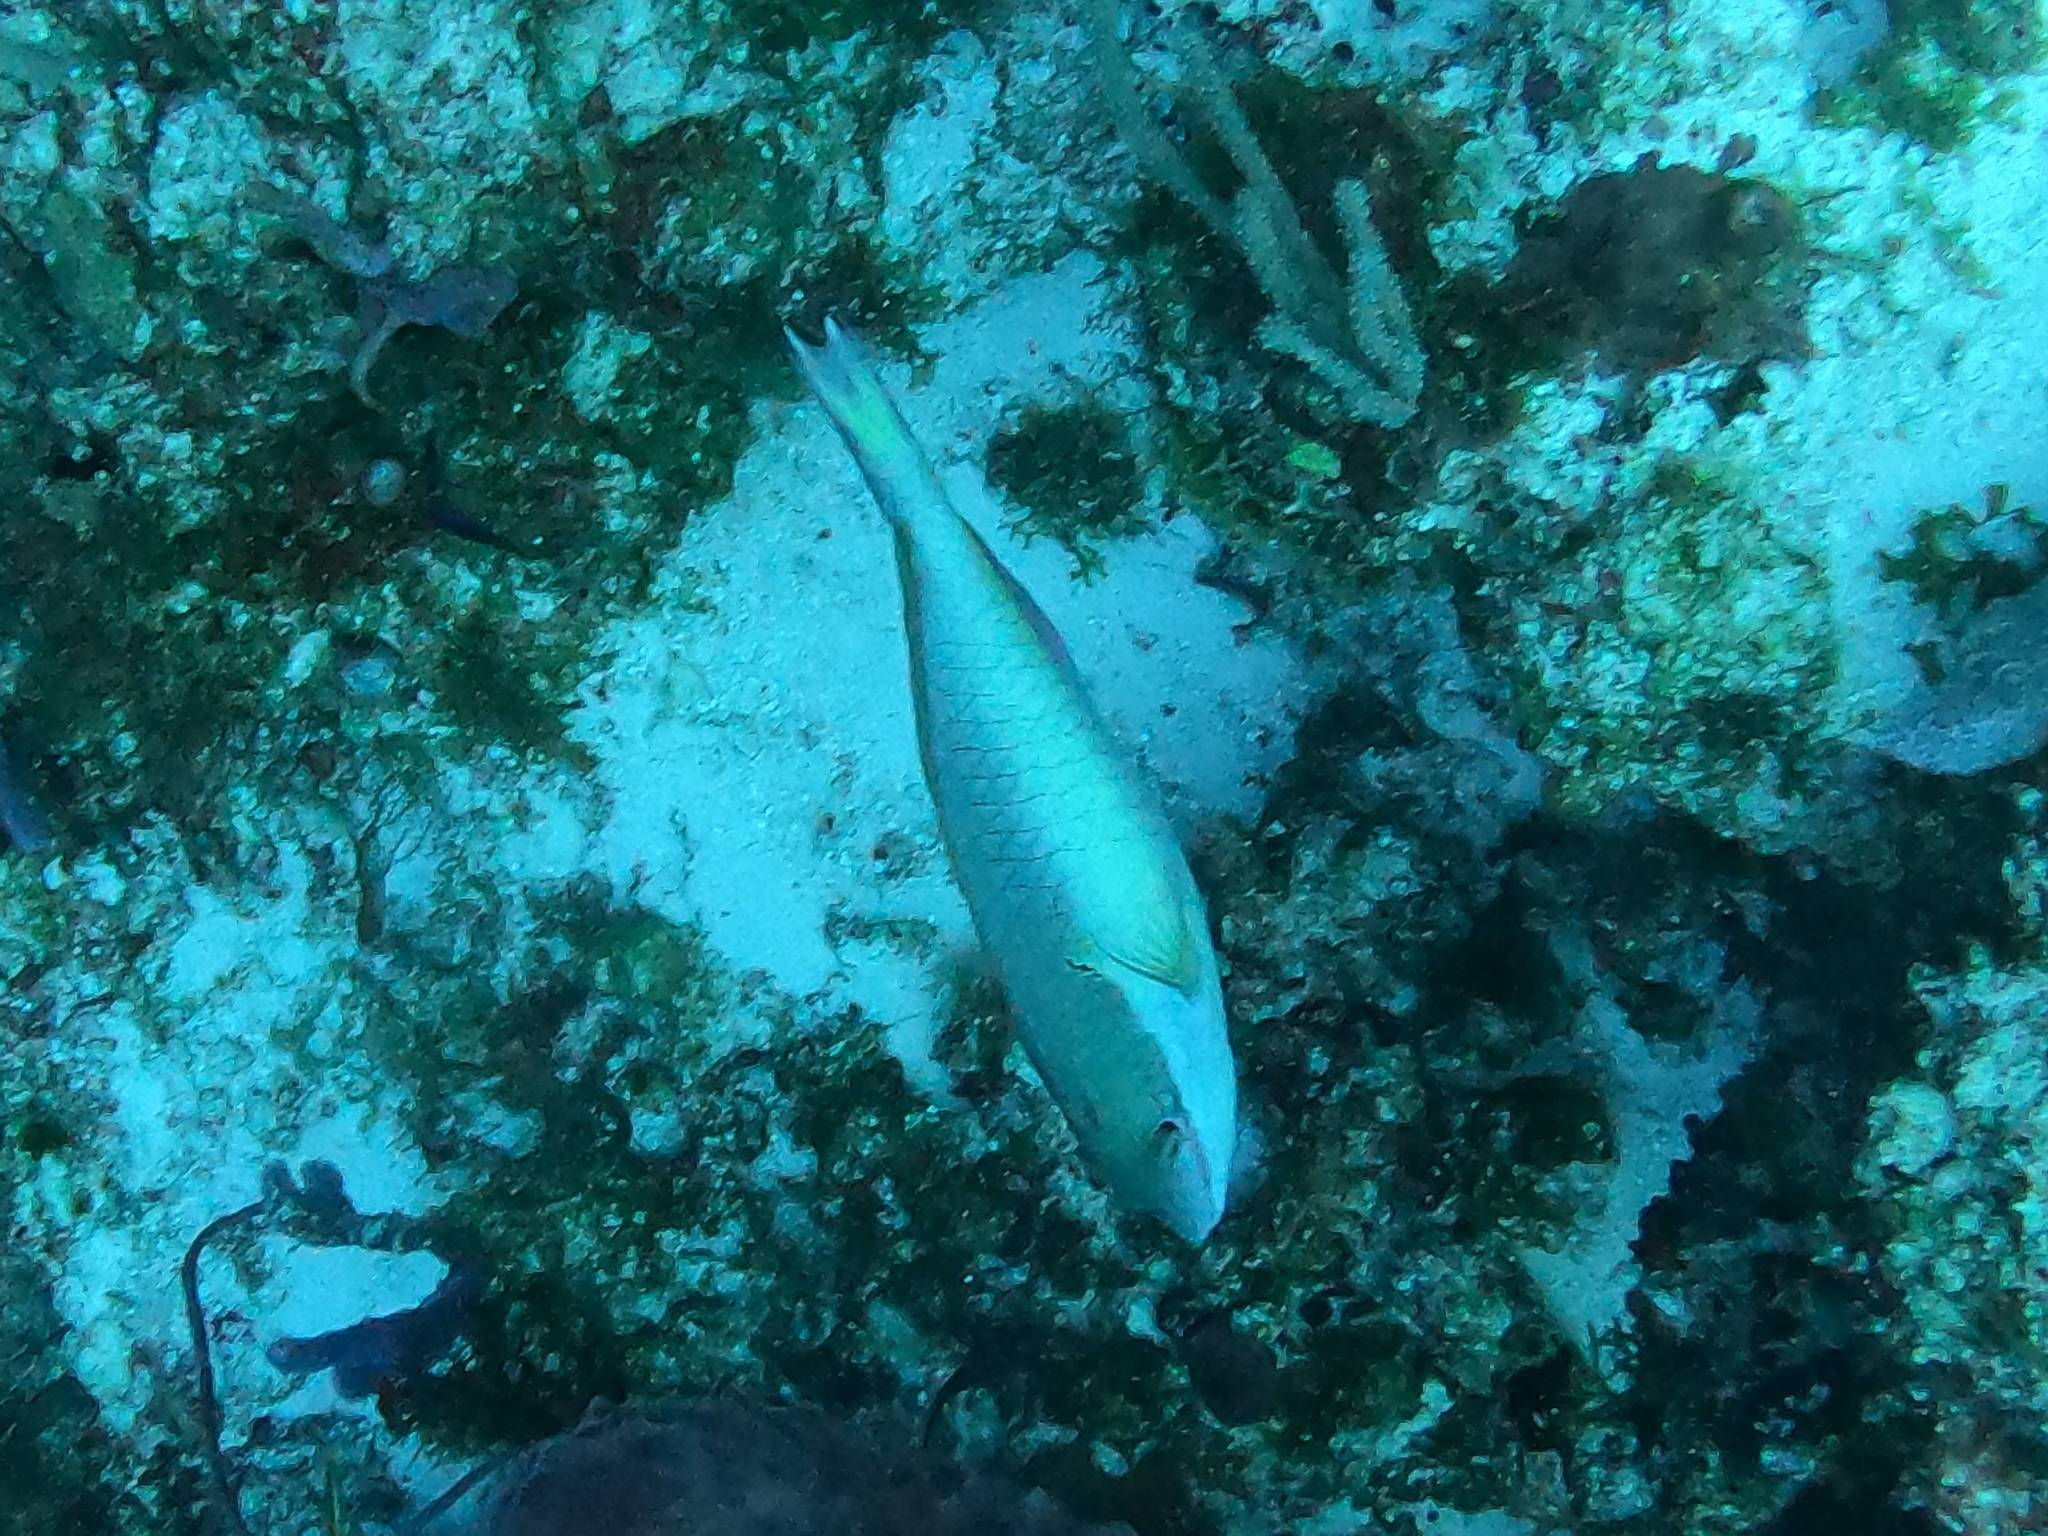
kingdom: Animalia
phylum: Chordata
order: Perciformes
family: Scaridae
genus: Sparisoma
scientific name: Sparisoma aurofrenatum
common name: Redband parrotfish
